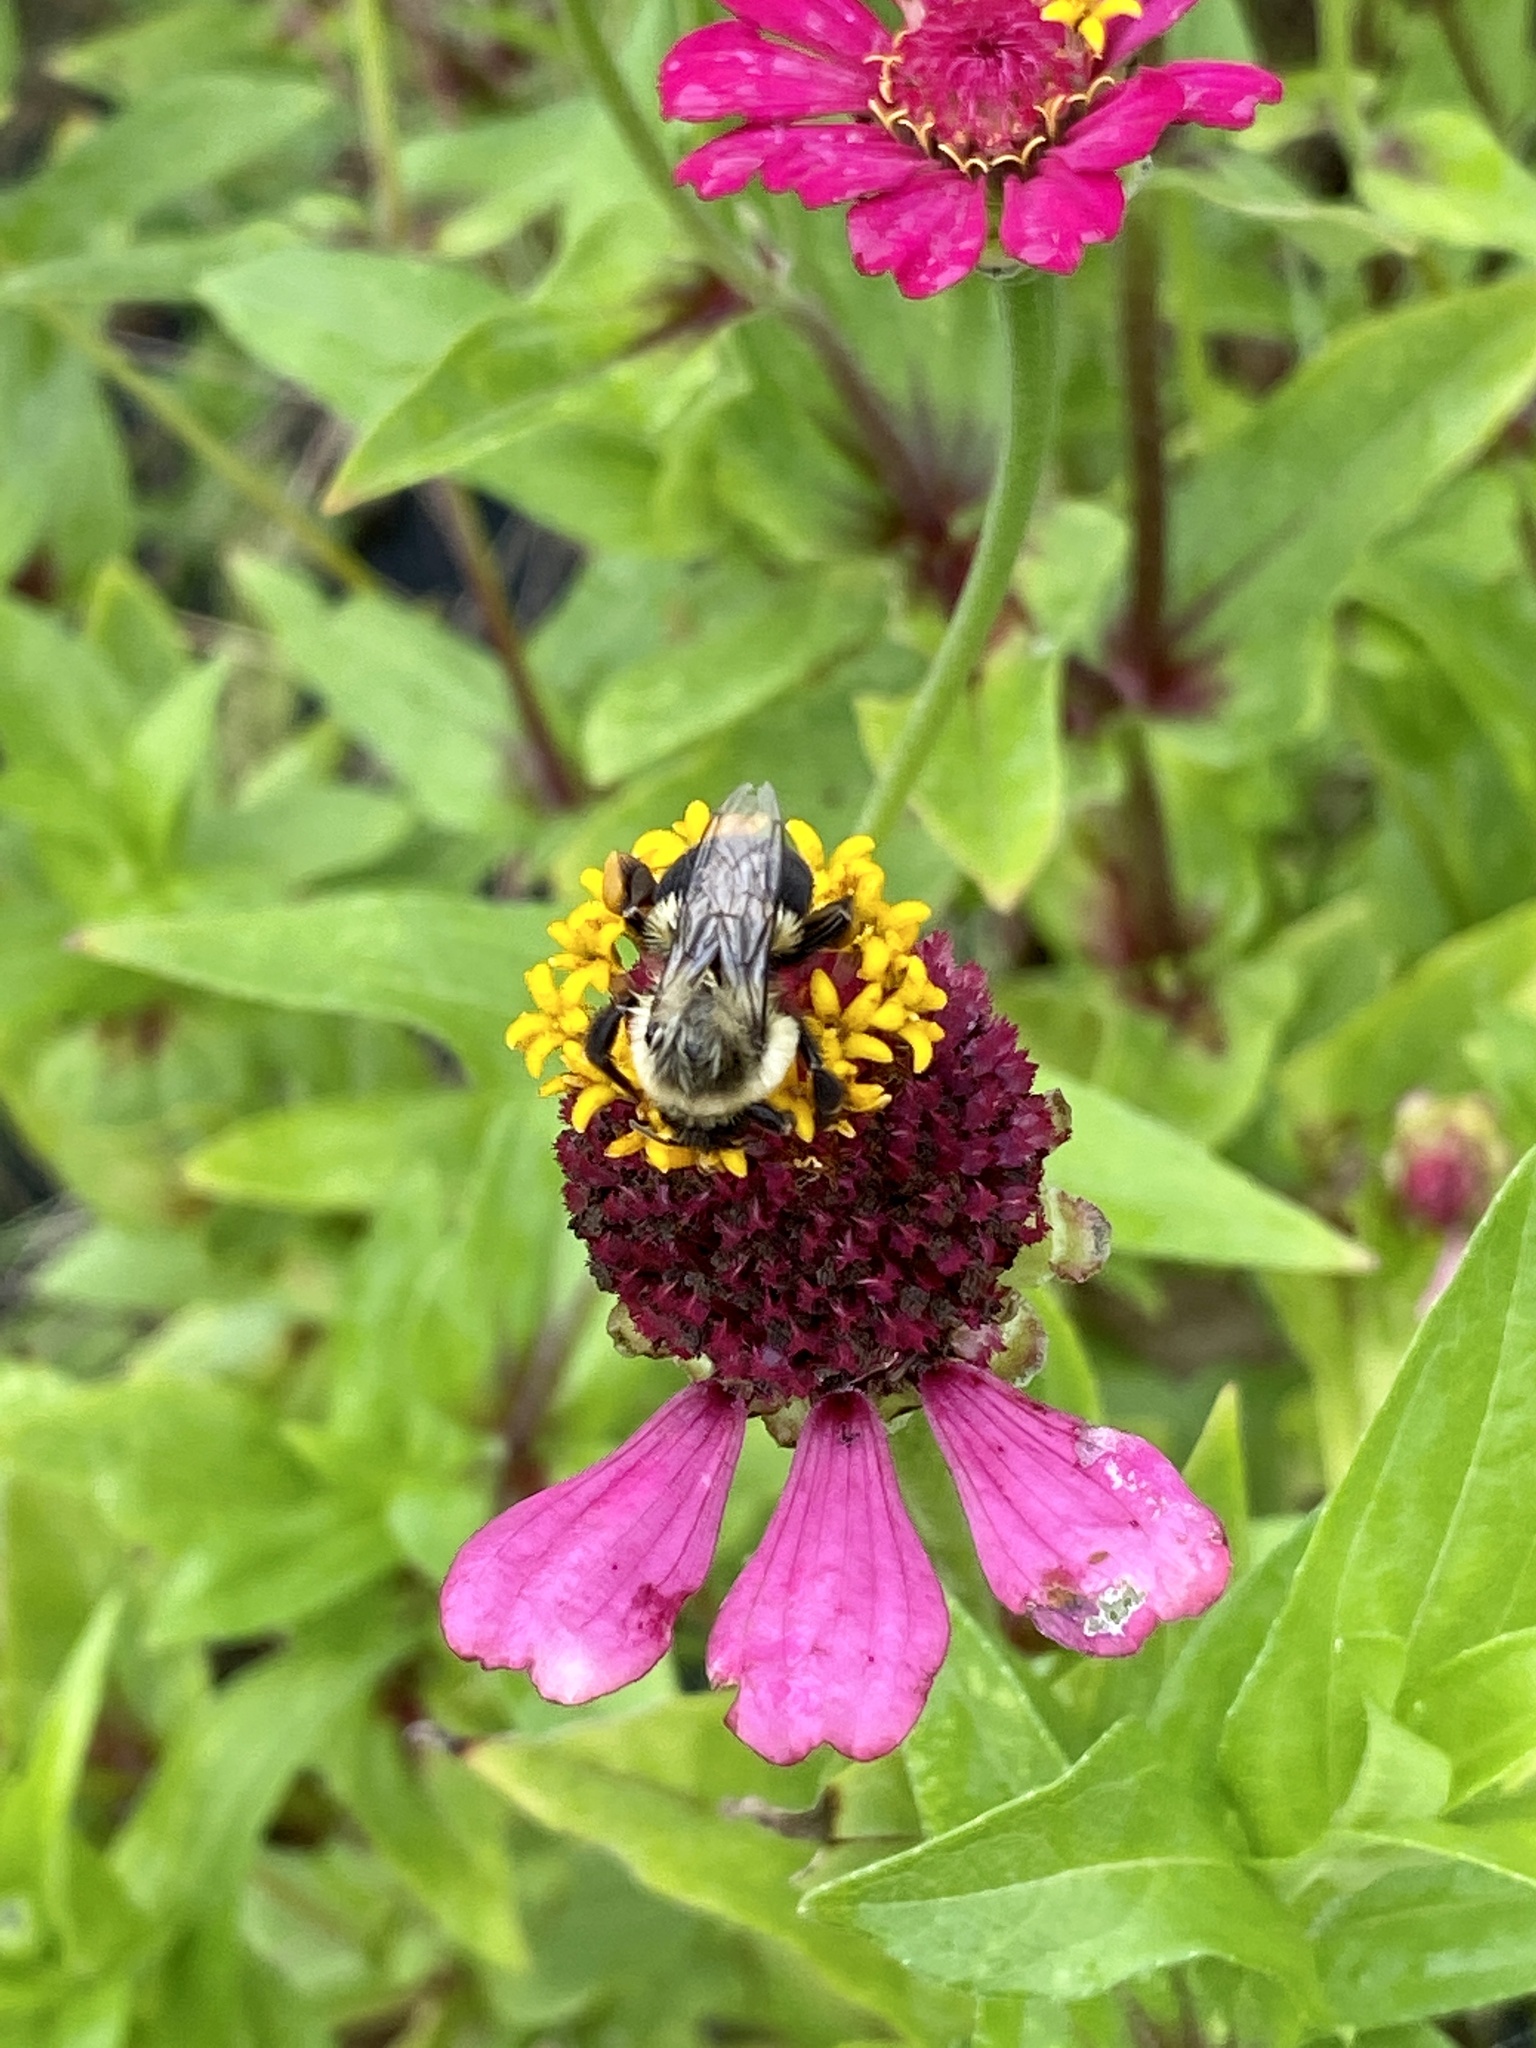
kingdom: Animalia
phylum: Arthropoda
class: Insecta
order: Hymenoptera
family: Apidae
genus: Bombus
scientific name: Bombus impatiens
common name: Common eastern bumble bee
